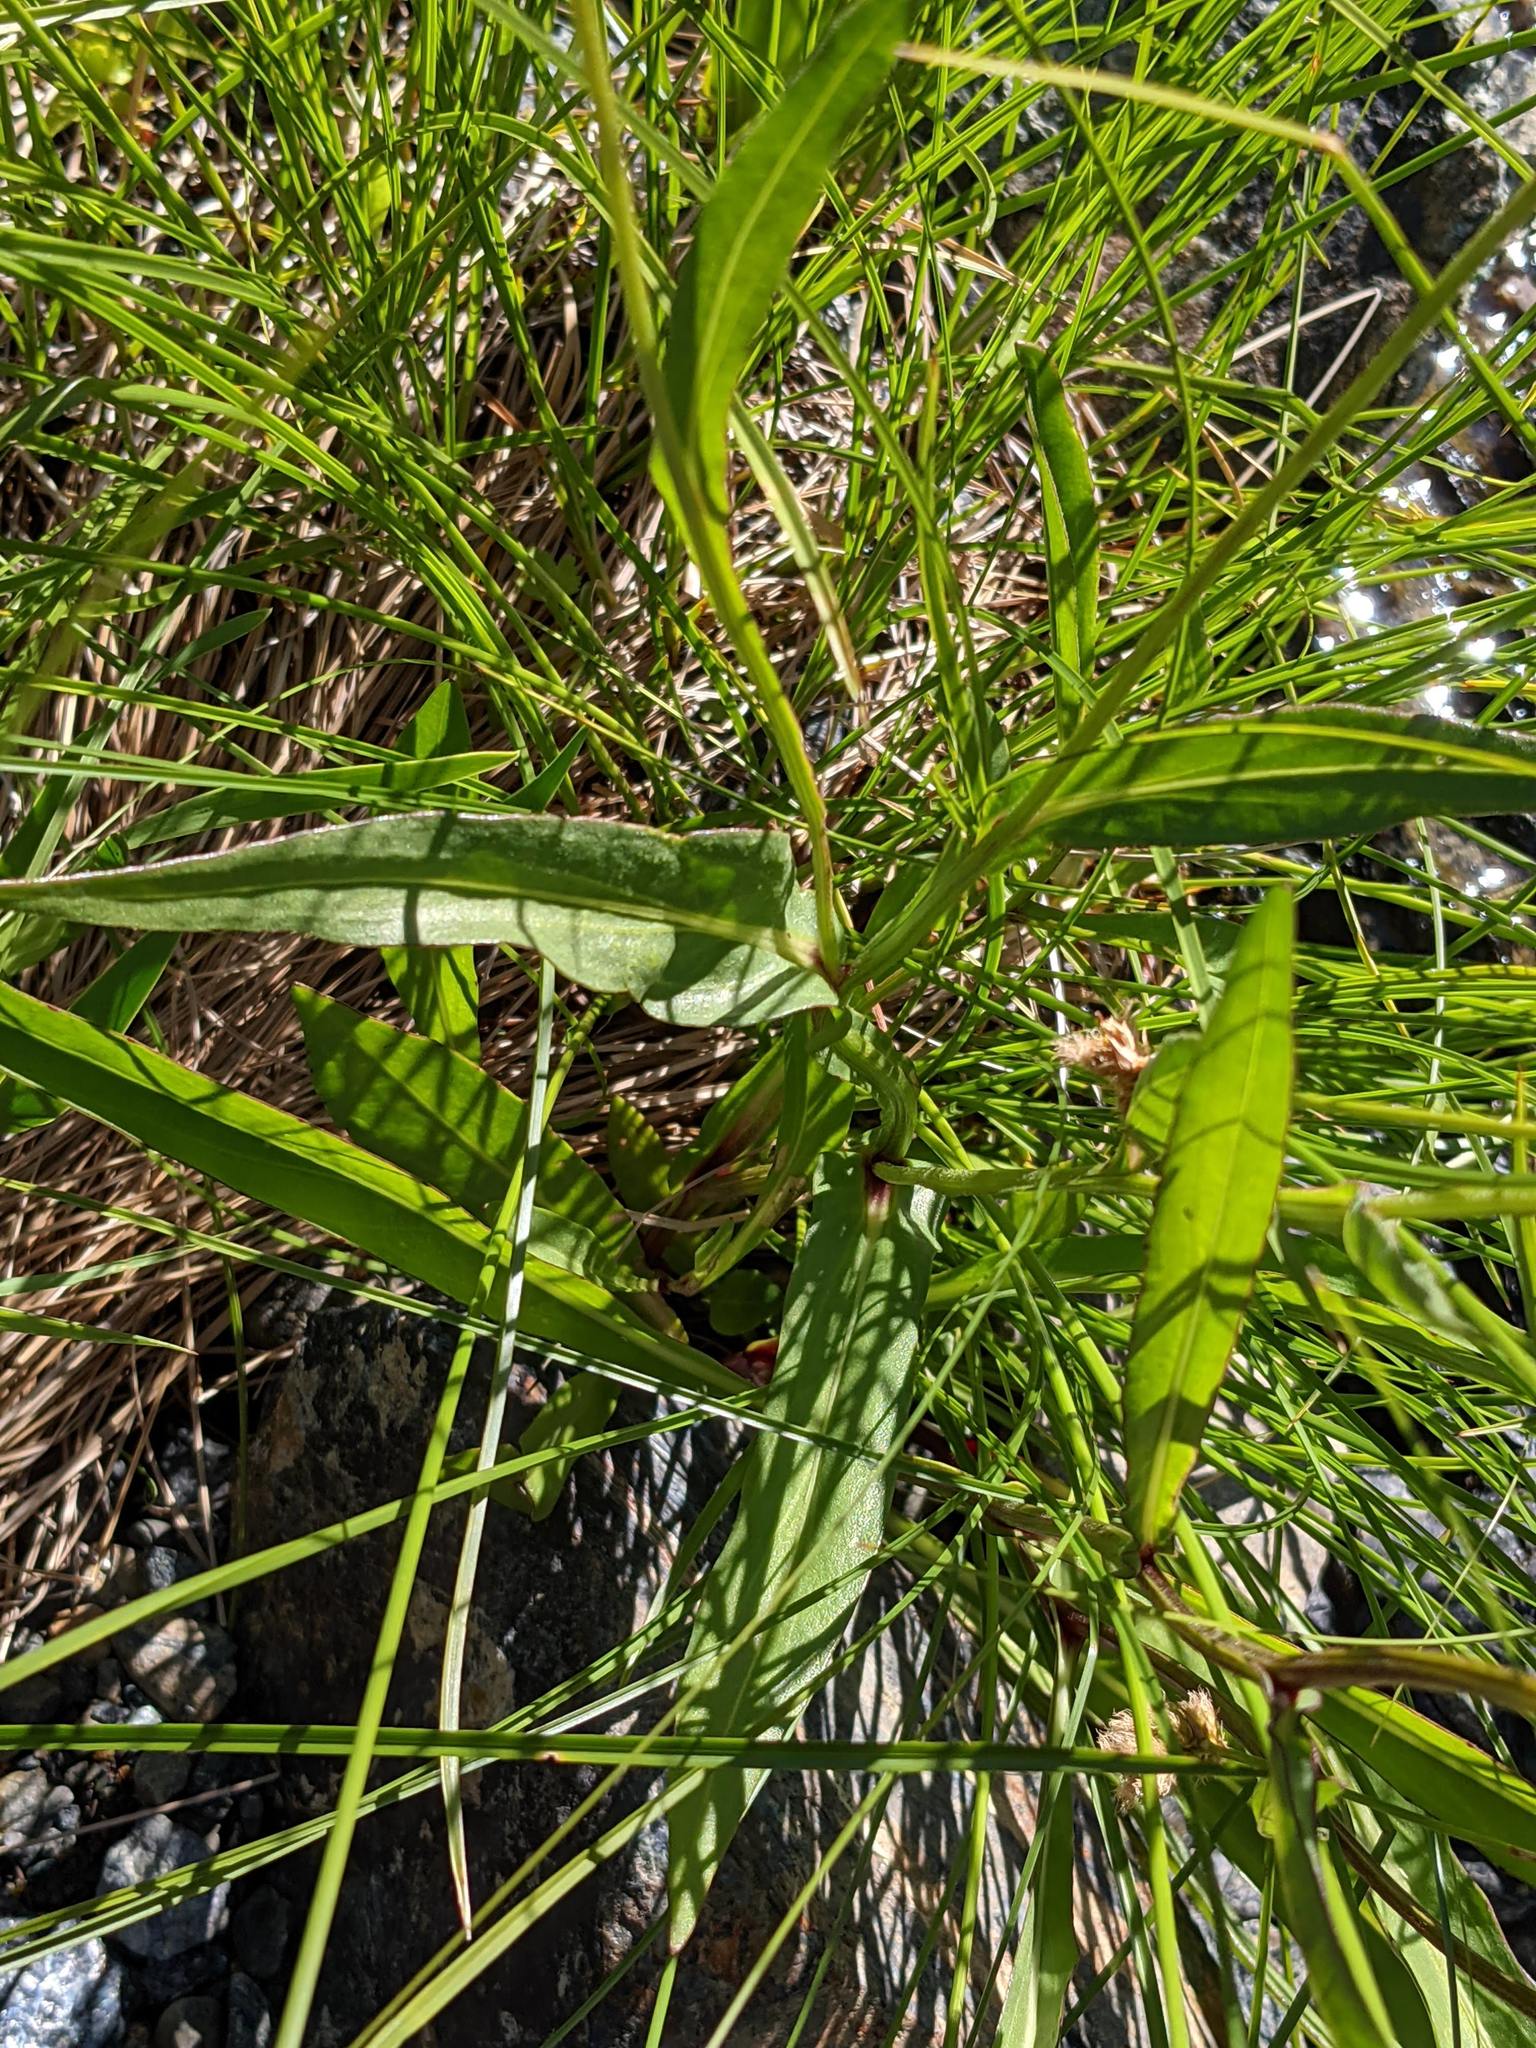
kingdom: Plantae
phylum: Tracheophyta
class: Magnoliopsida
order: Asterales
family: Asteraceae
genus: Helenium
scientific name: Helenium bigelovii
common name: Bigelow's sneezeweed
